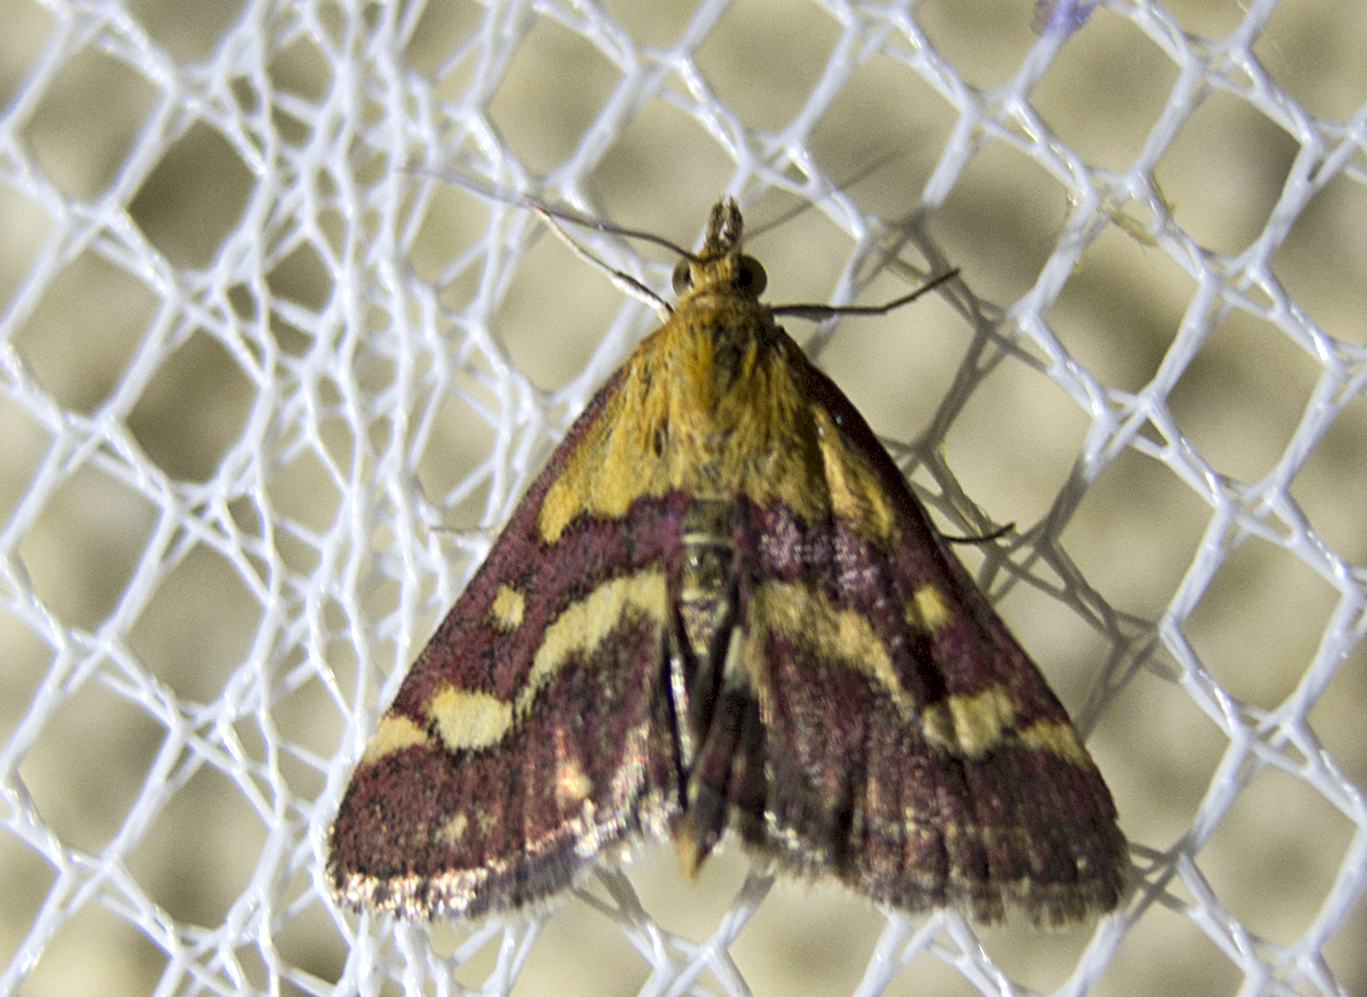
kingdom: Animalia
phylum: Arthropoda
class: Insecta
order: Lepidoptera
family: Crambidae
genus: Pyrausta
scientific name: Pyrausta purpuralis
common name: Common purple & gold
